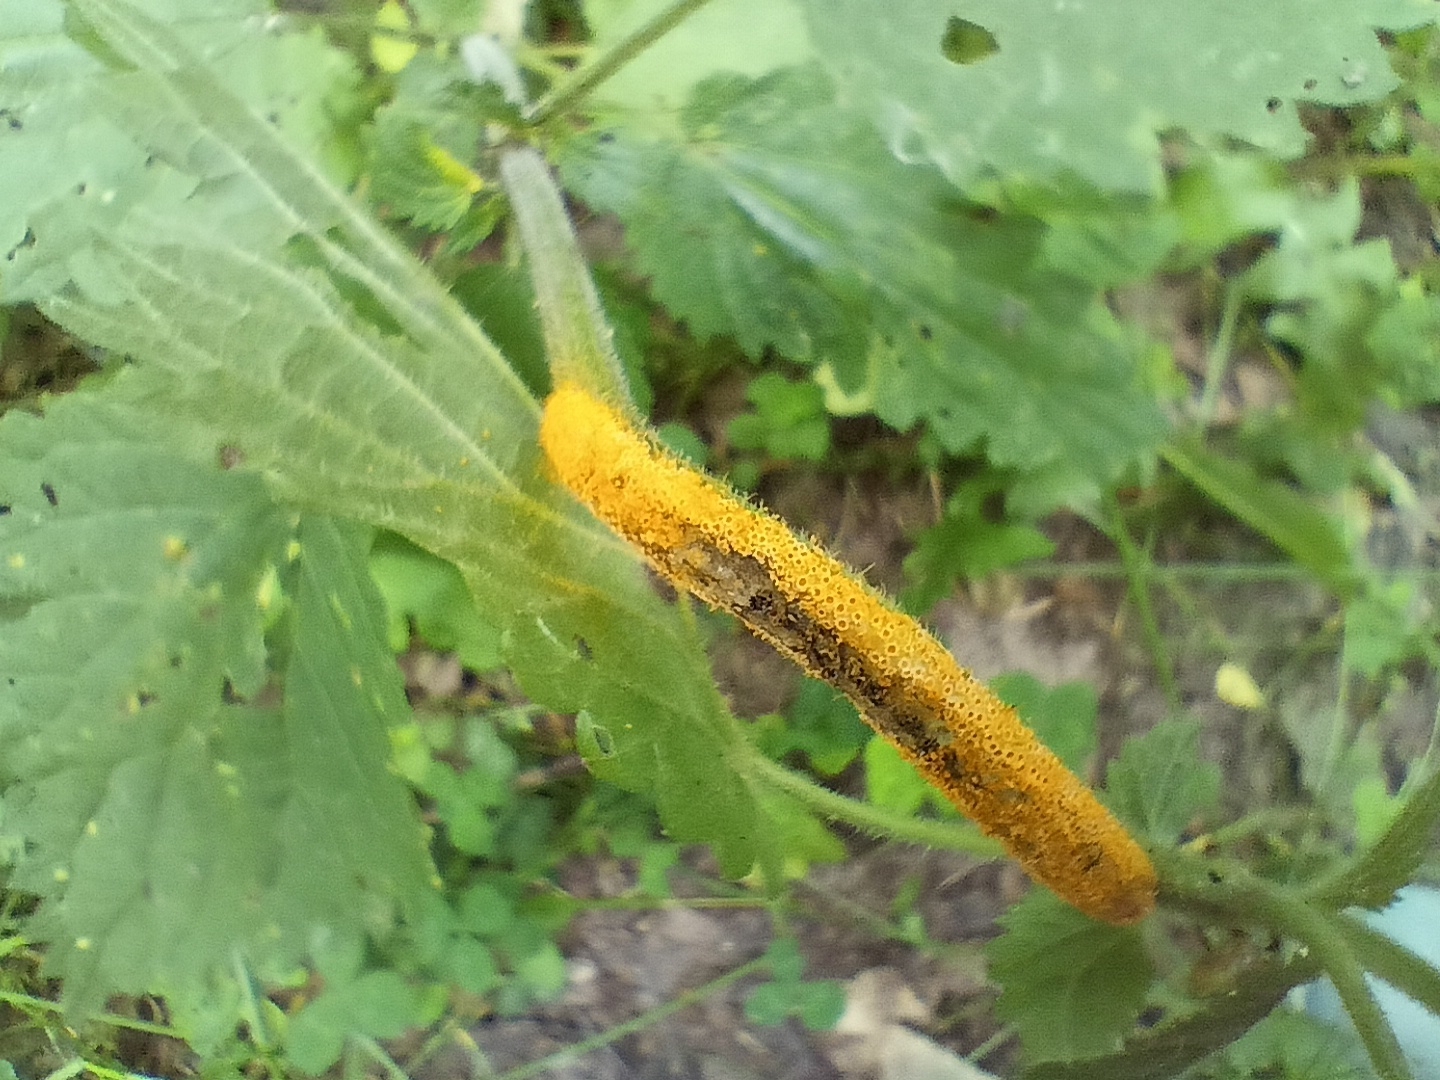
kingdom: Fungi
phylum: Basidiomycota
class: Pucciniomycetes
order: Pucciniales
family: Pucciniaceae
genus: Puccinia
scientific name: Puccinia urticata
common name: Nettle clustercup rust fungus
